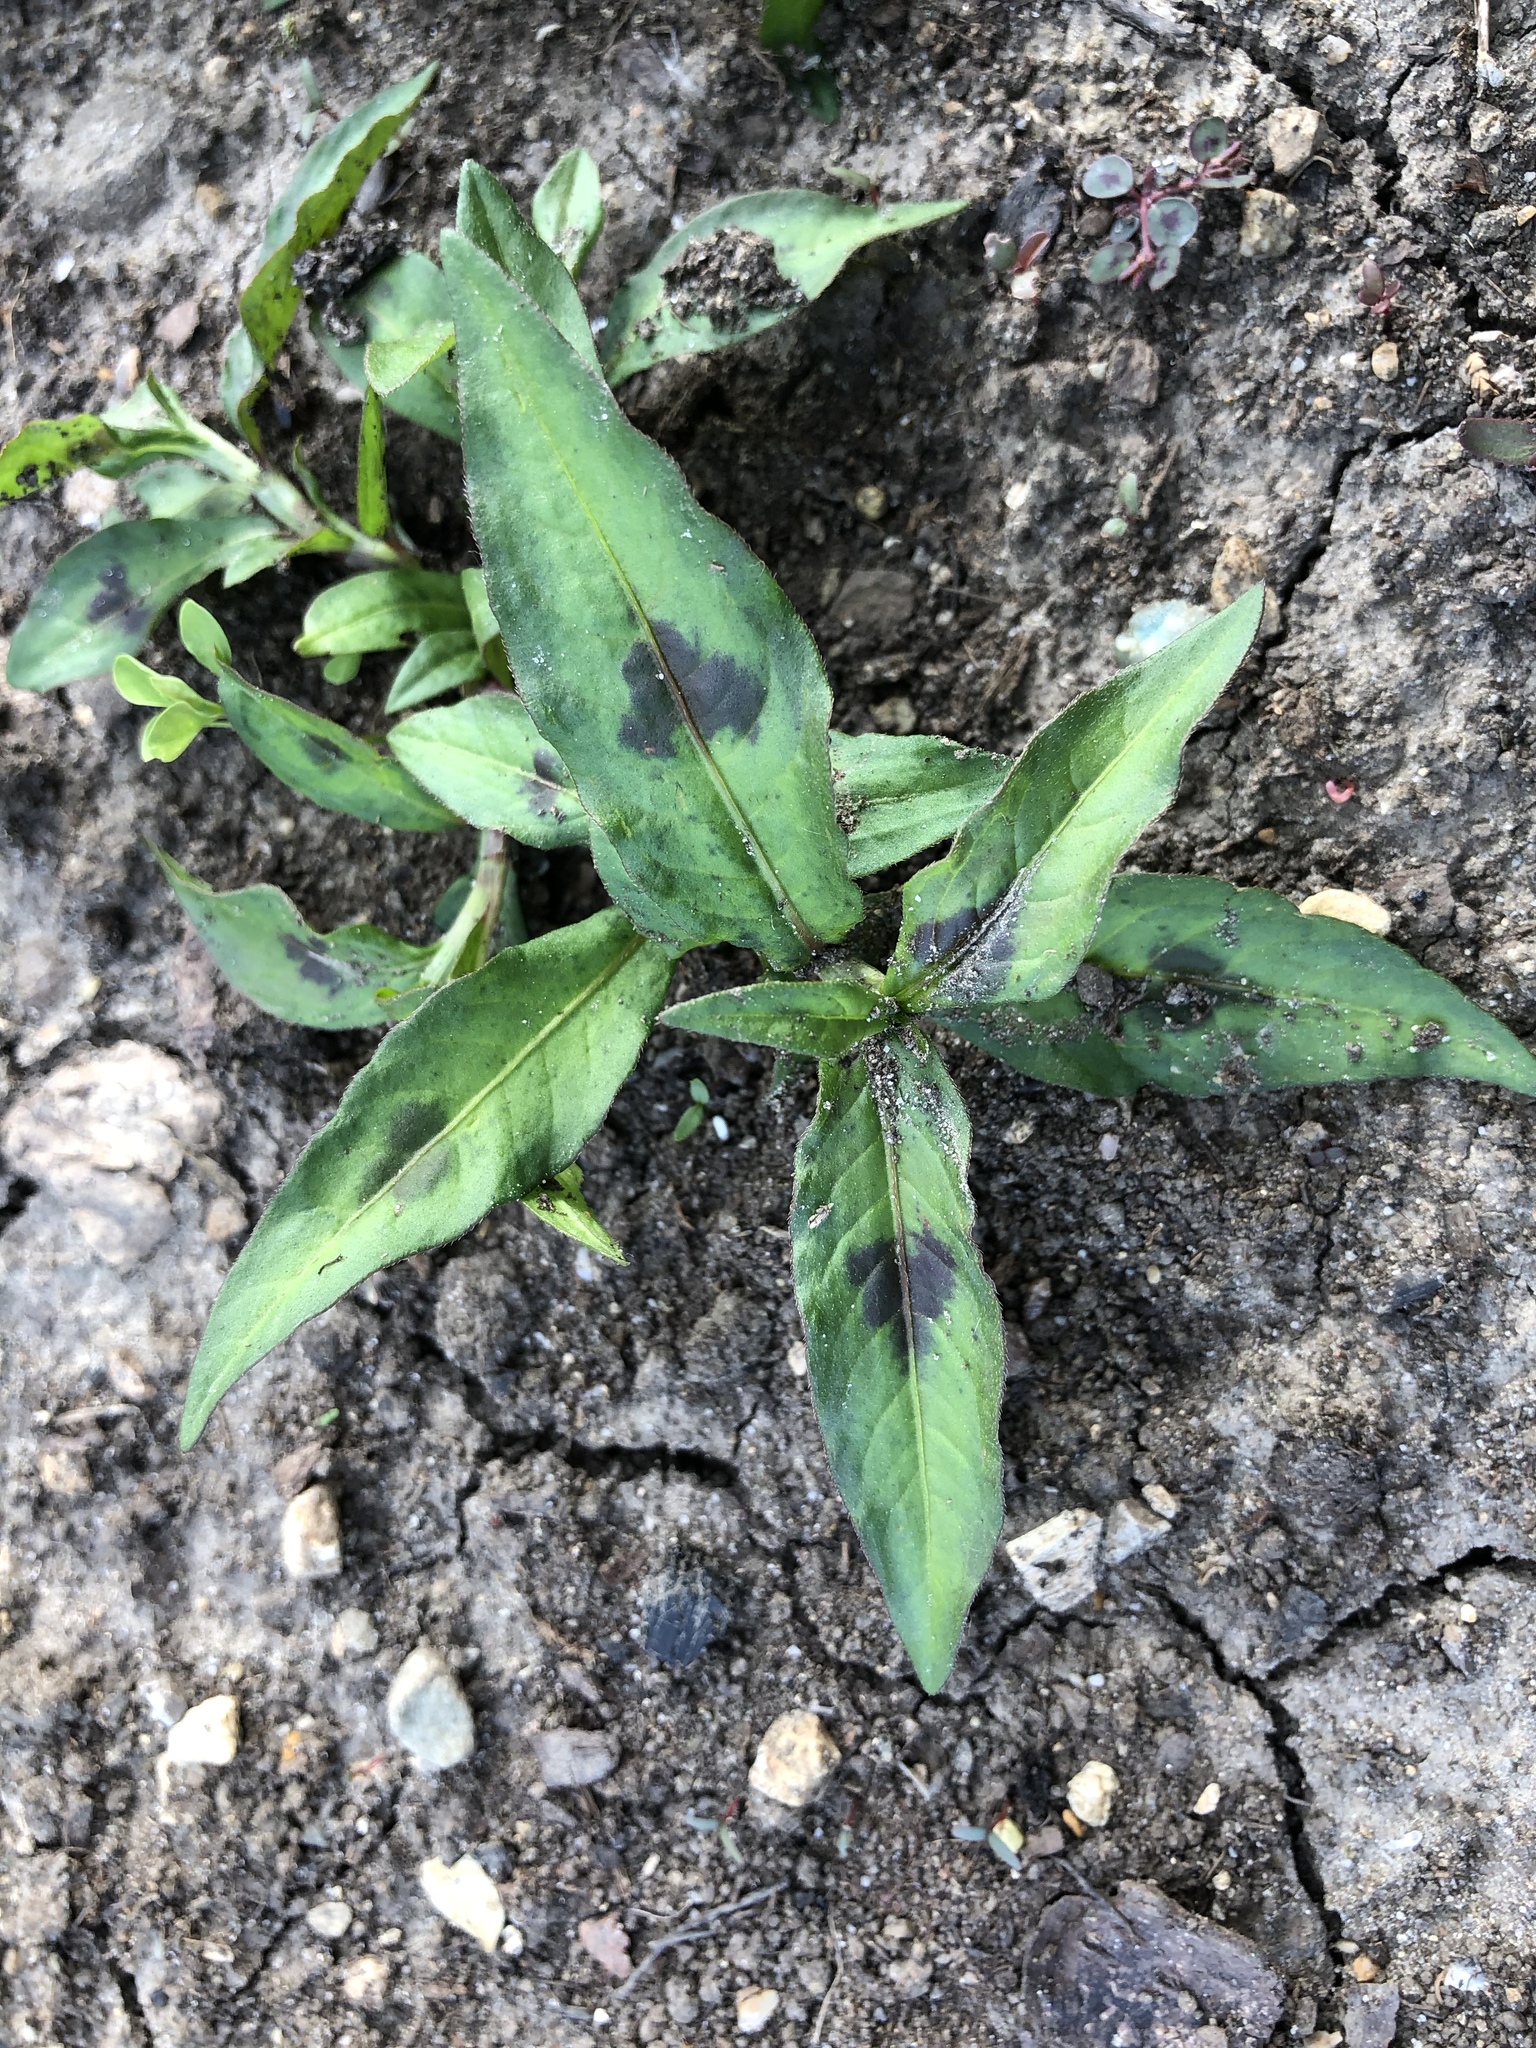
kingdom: Plantae
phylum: Tracheophyta
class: Magnoliopsida
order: Caryophyllales
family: Polygonaceae
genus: Persicaria
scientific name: Persicaria maculosa
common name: Redshank
